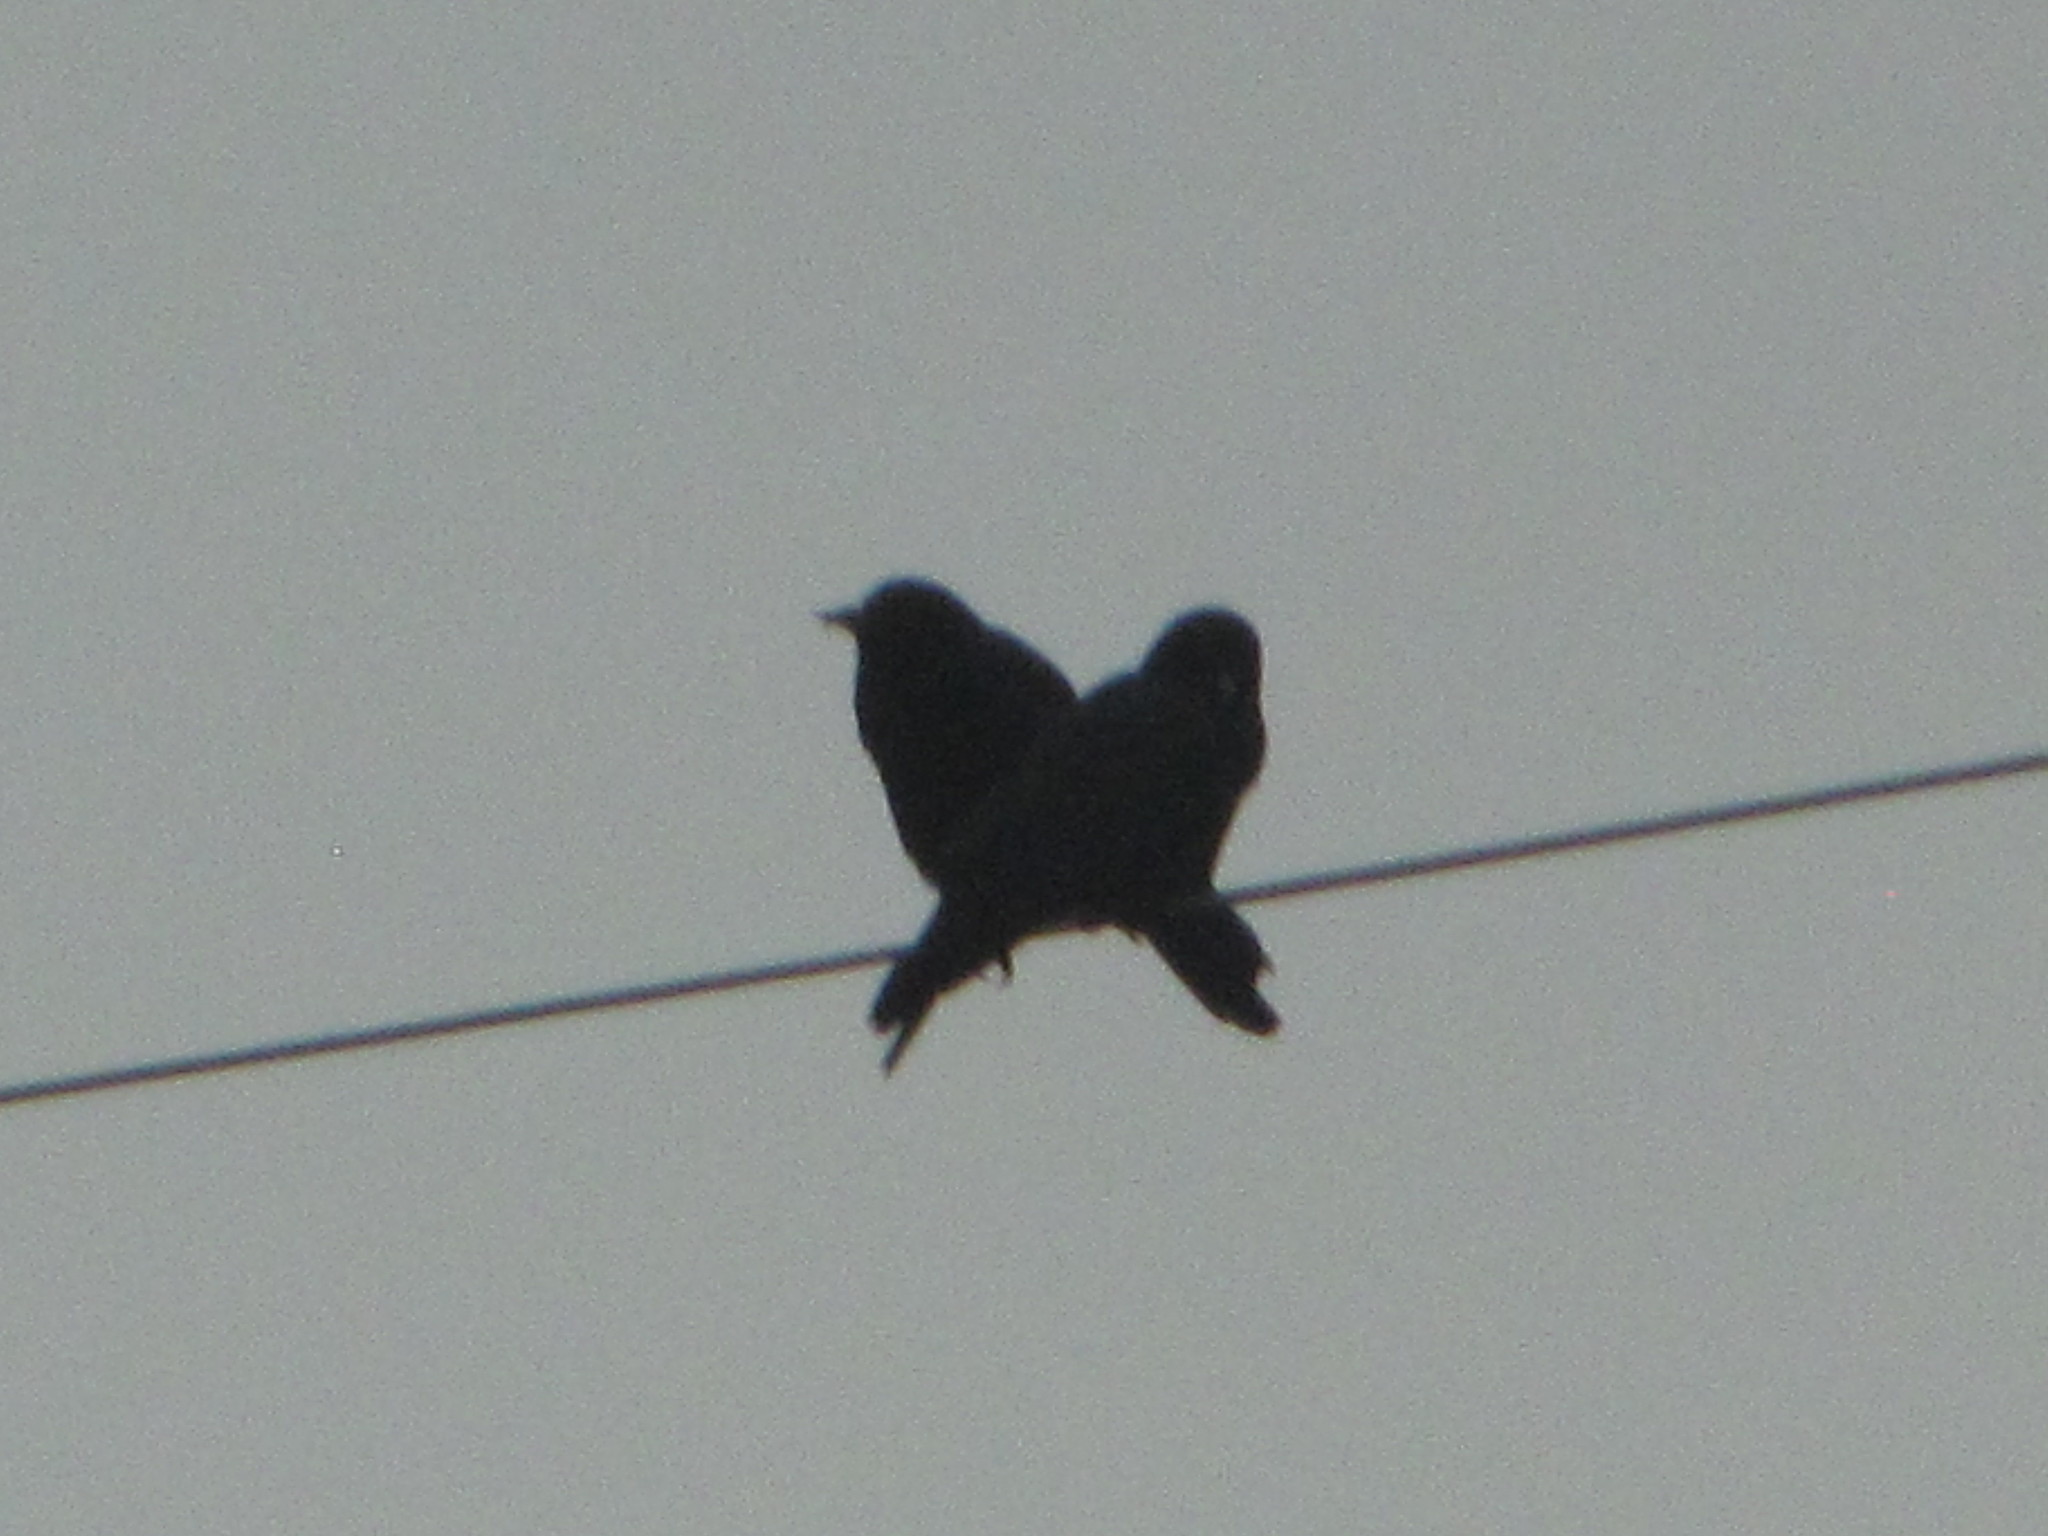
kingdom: Animalia
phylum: Chordata
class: Aves
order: Passeriformes
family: Corvidae
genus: Corvus
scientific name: Corvus brachyrhynchos
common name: American crow
